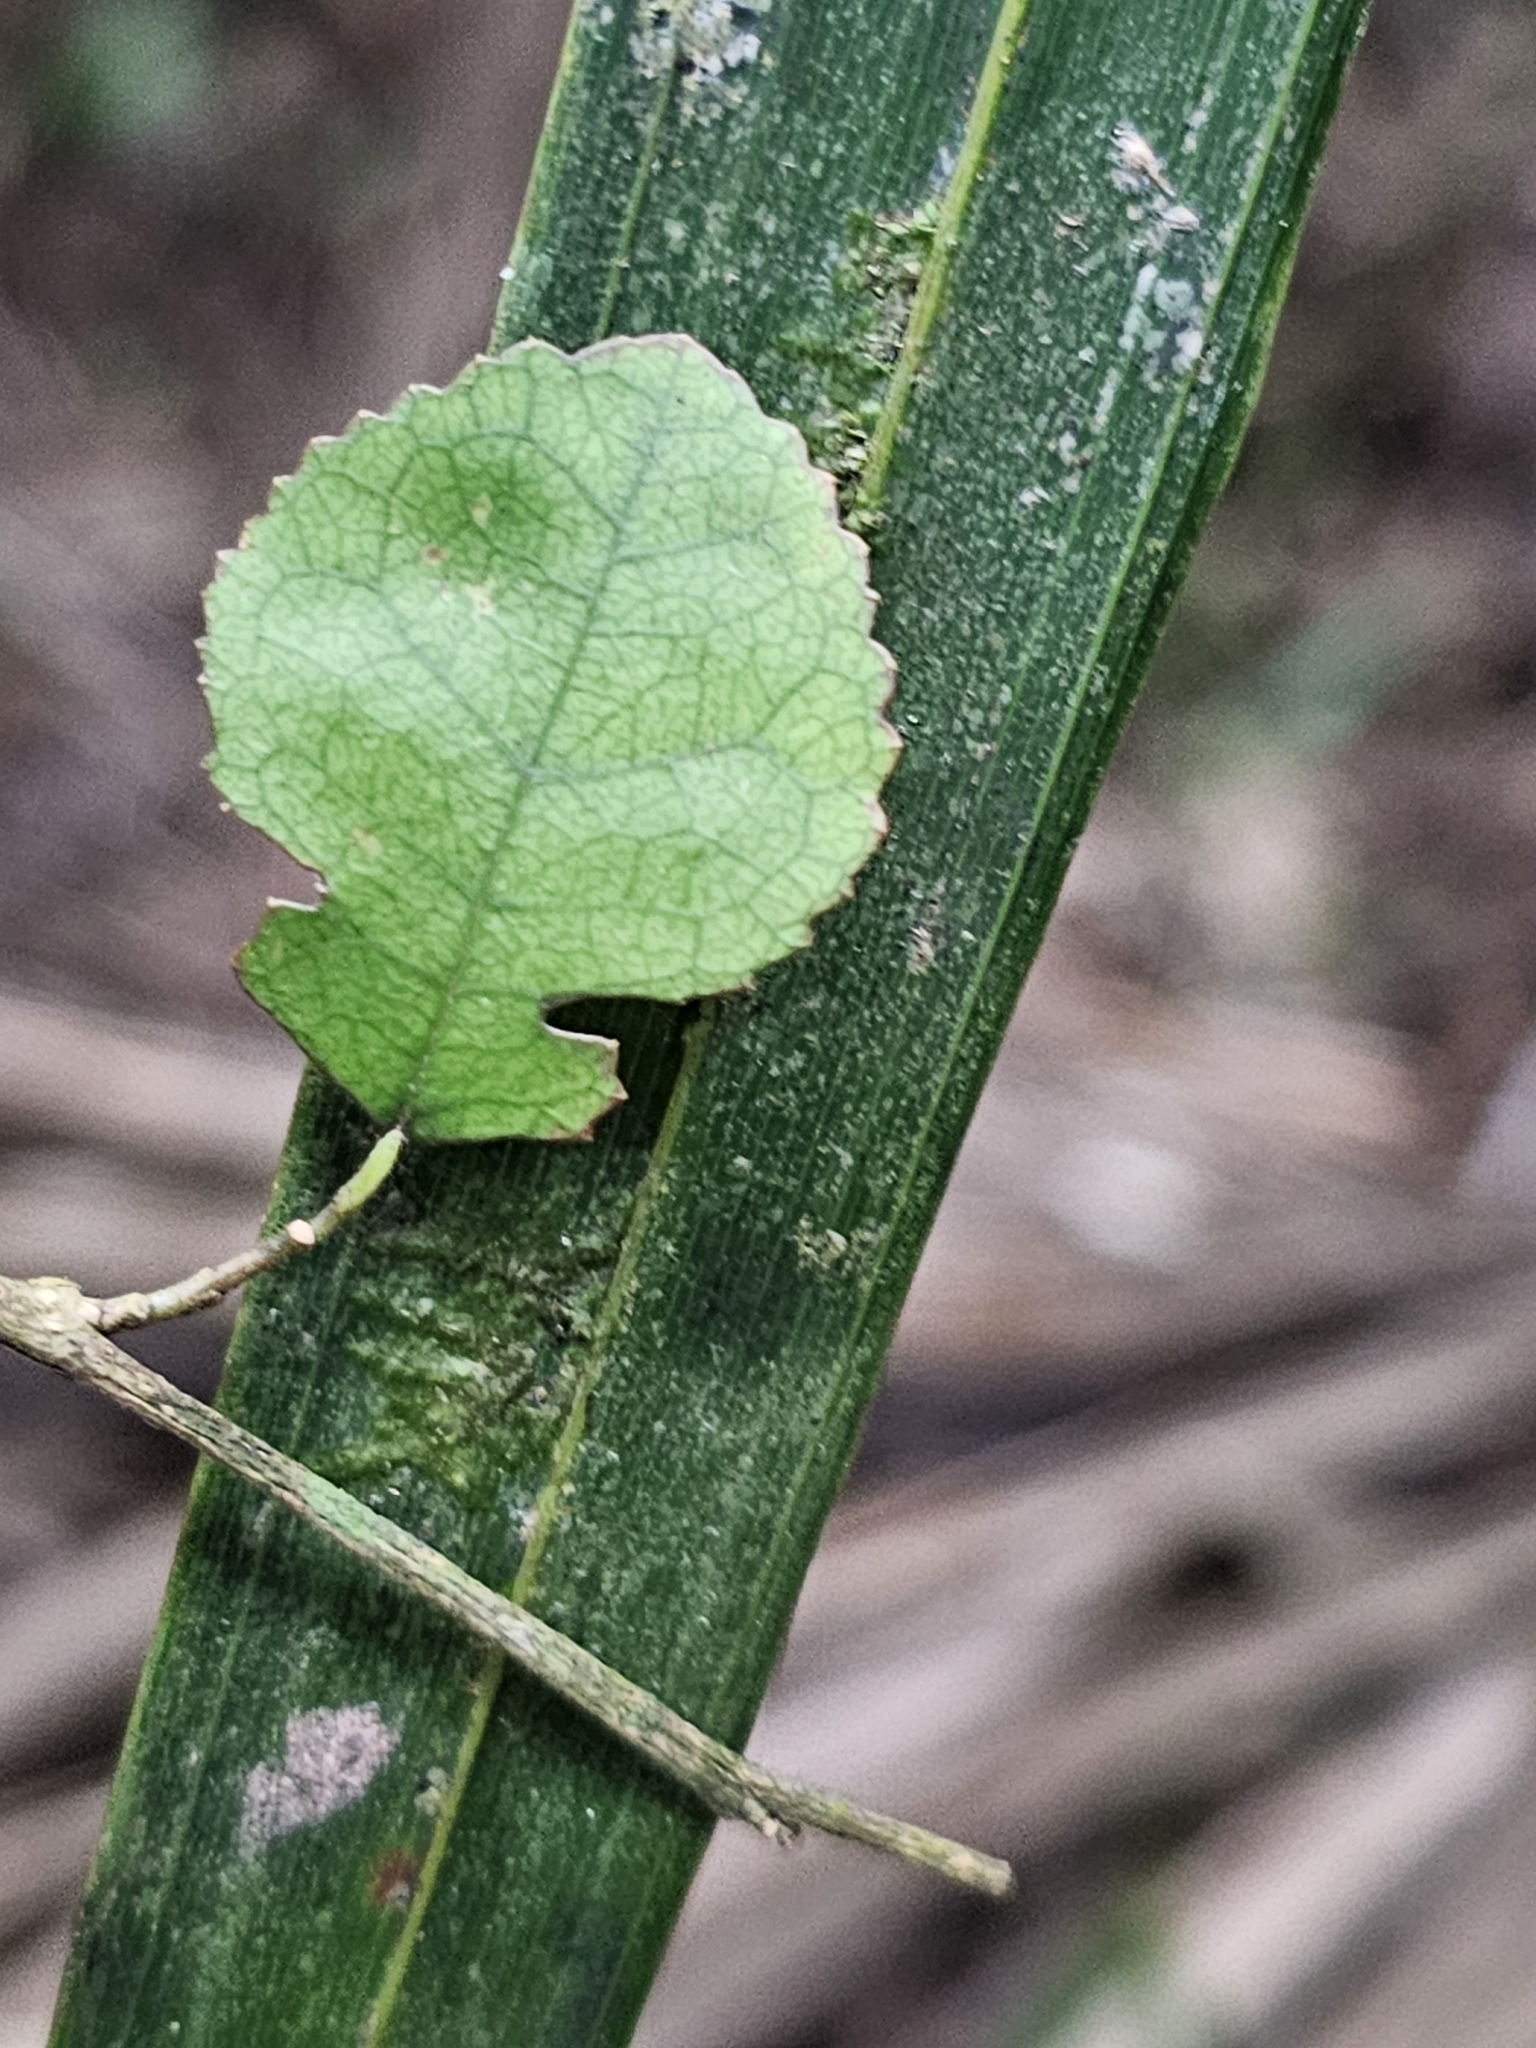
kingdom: Plantae
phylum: Tracheophyta
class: Magnoliopsida
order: Rosales
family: Moraceae
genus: Paratrophis
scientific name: Paratrophis microphylla
